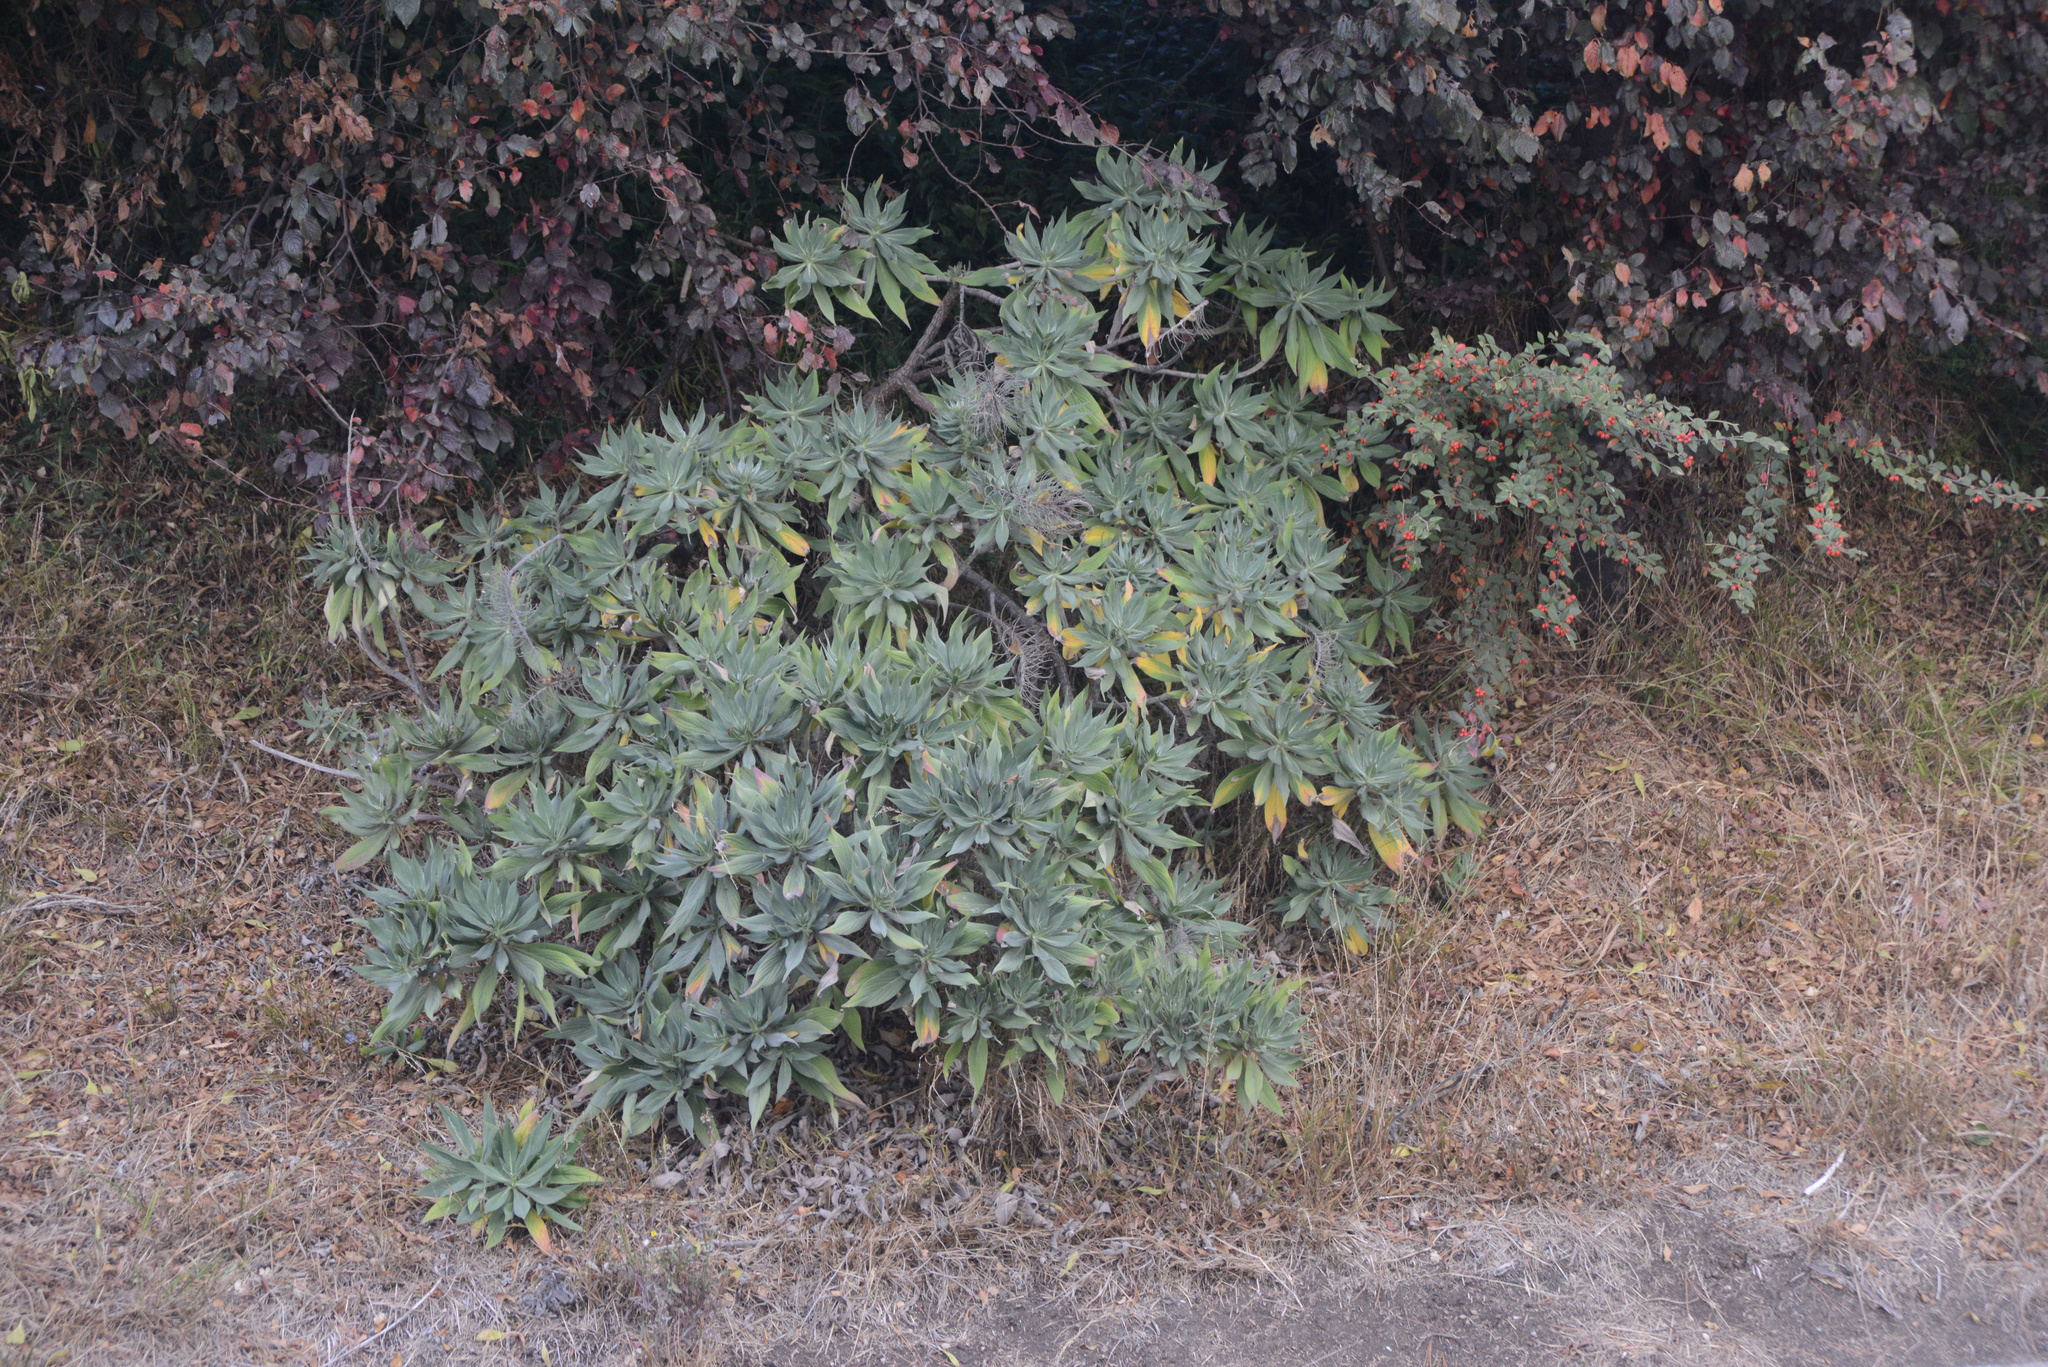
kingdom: Plantae
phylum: Tracheophyta
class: Magnoliopsida
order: Boraginales
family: Boraginaceae
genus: Echium
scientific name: Echium candicans
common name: Pride of madeira
